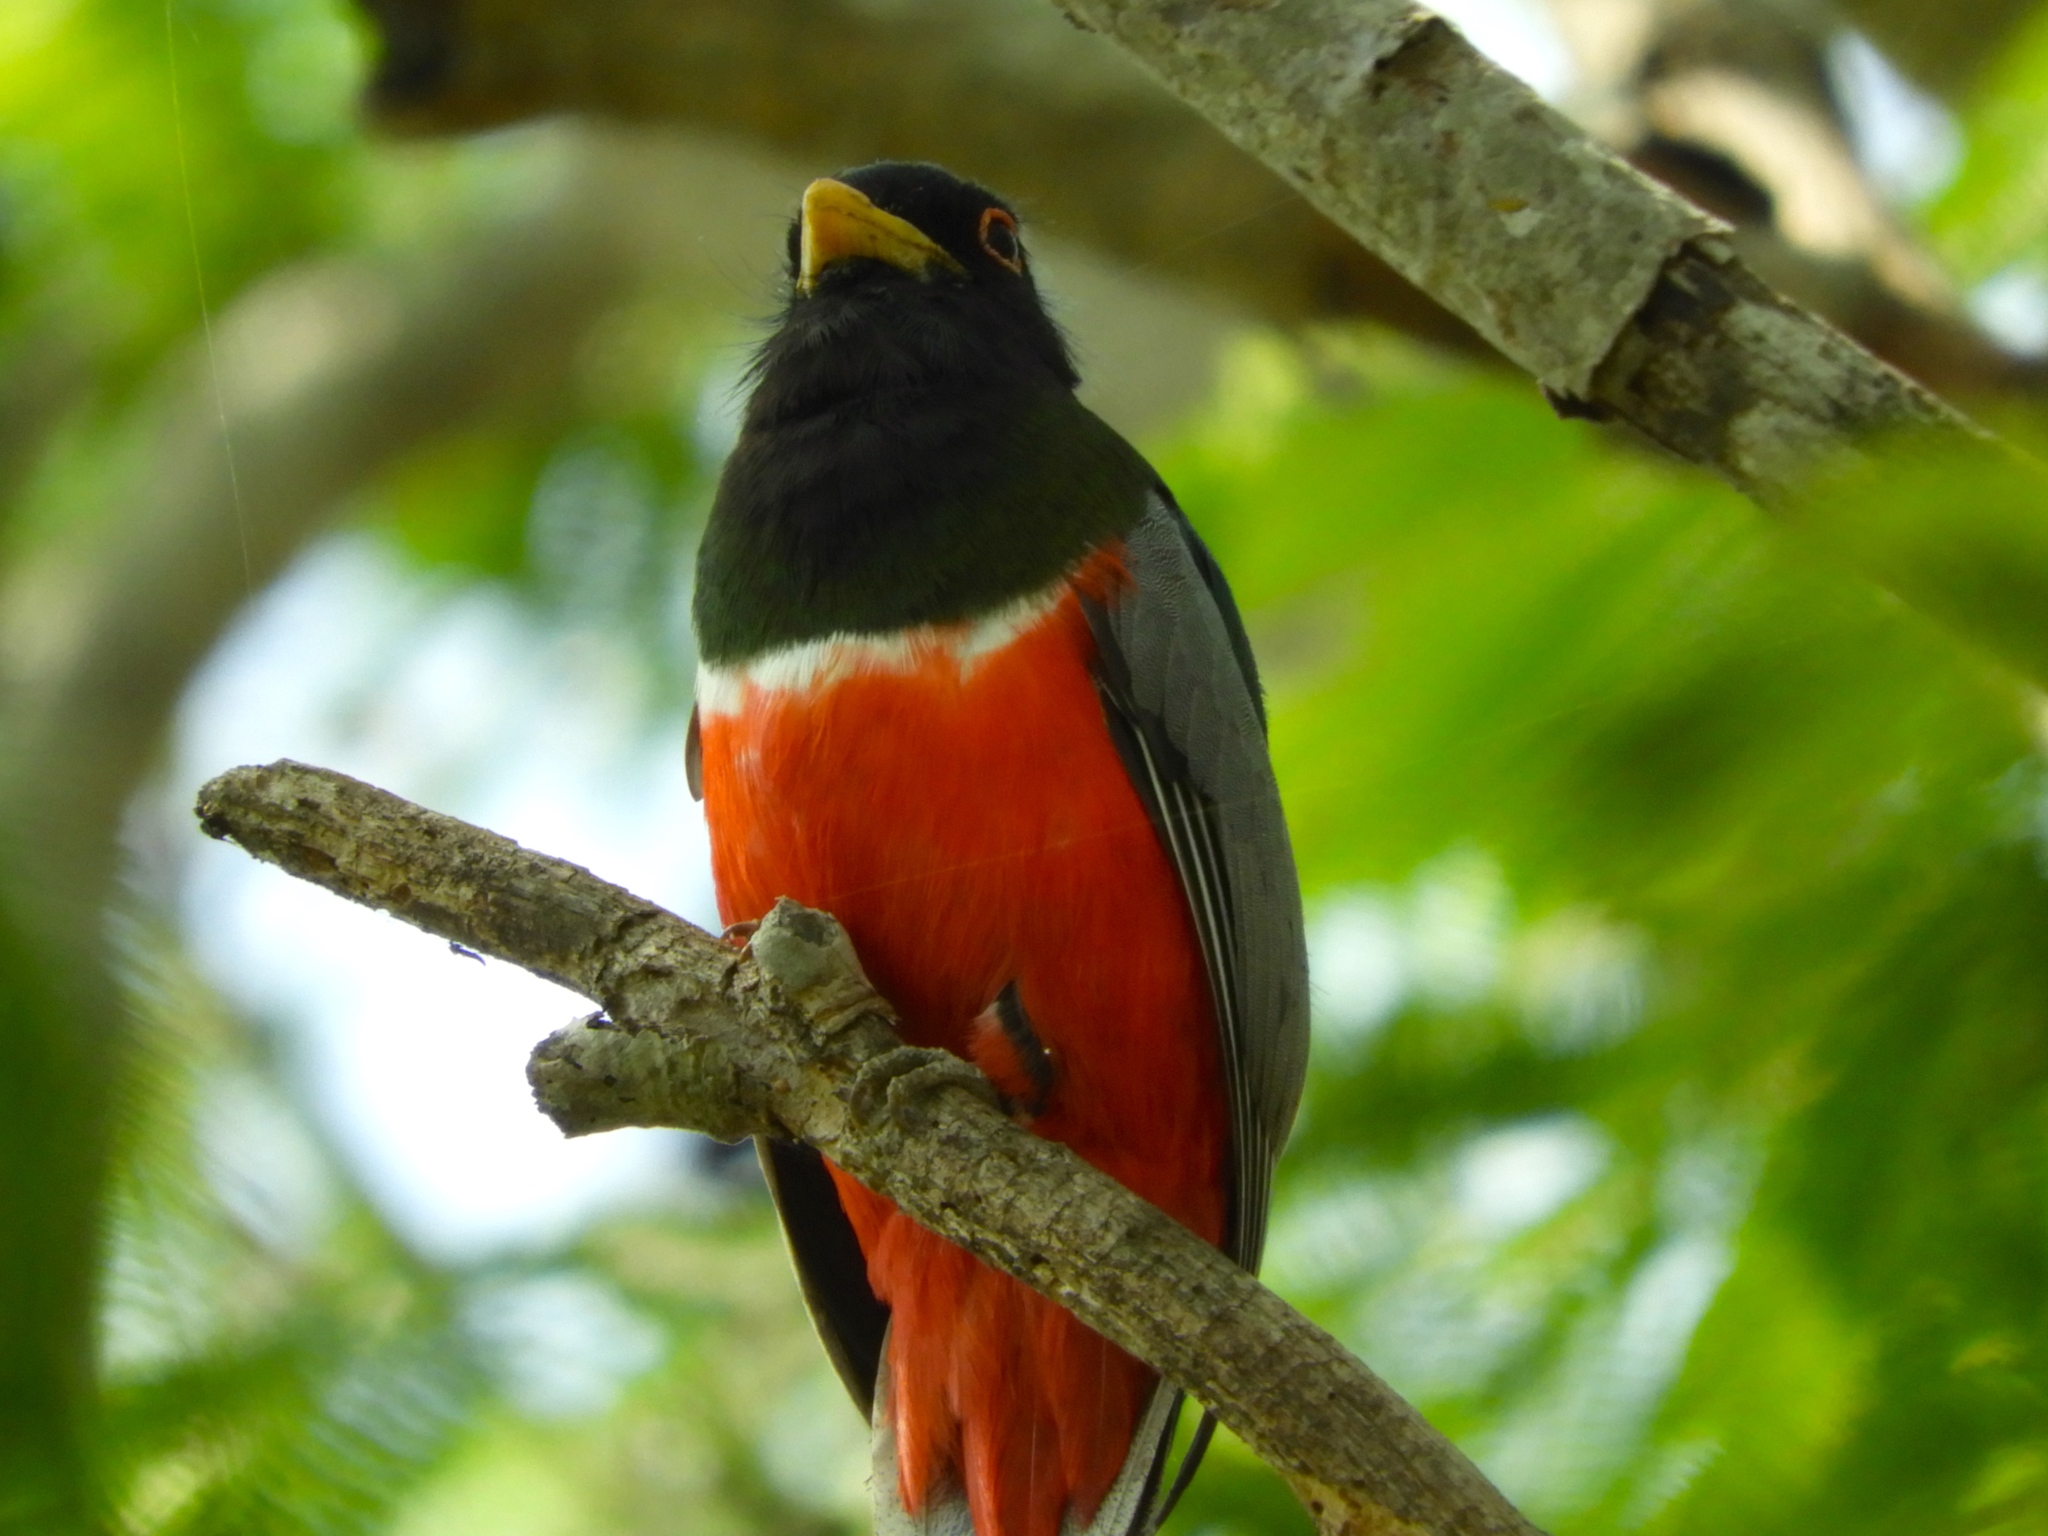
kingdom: Animalia
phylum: Chordata
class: Aves
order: Trogoniformes
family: Trogonidae
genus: Trogon
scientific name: Trogon elegans
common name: Elegant trogon
